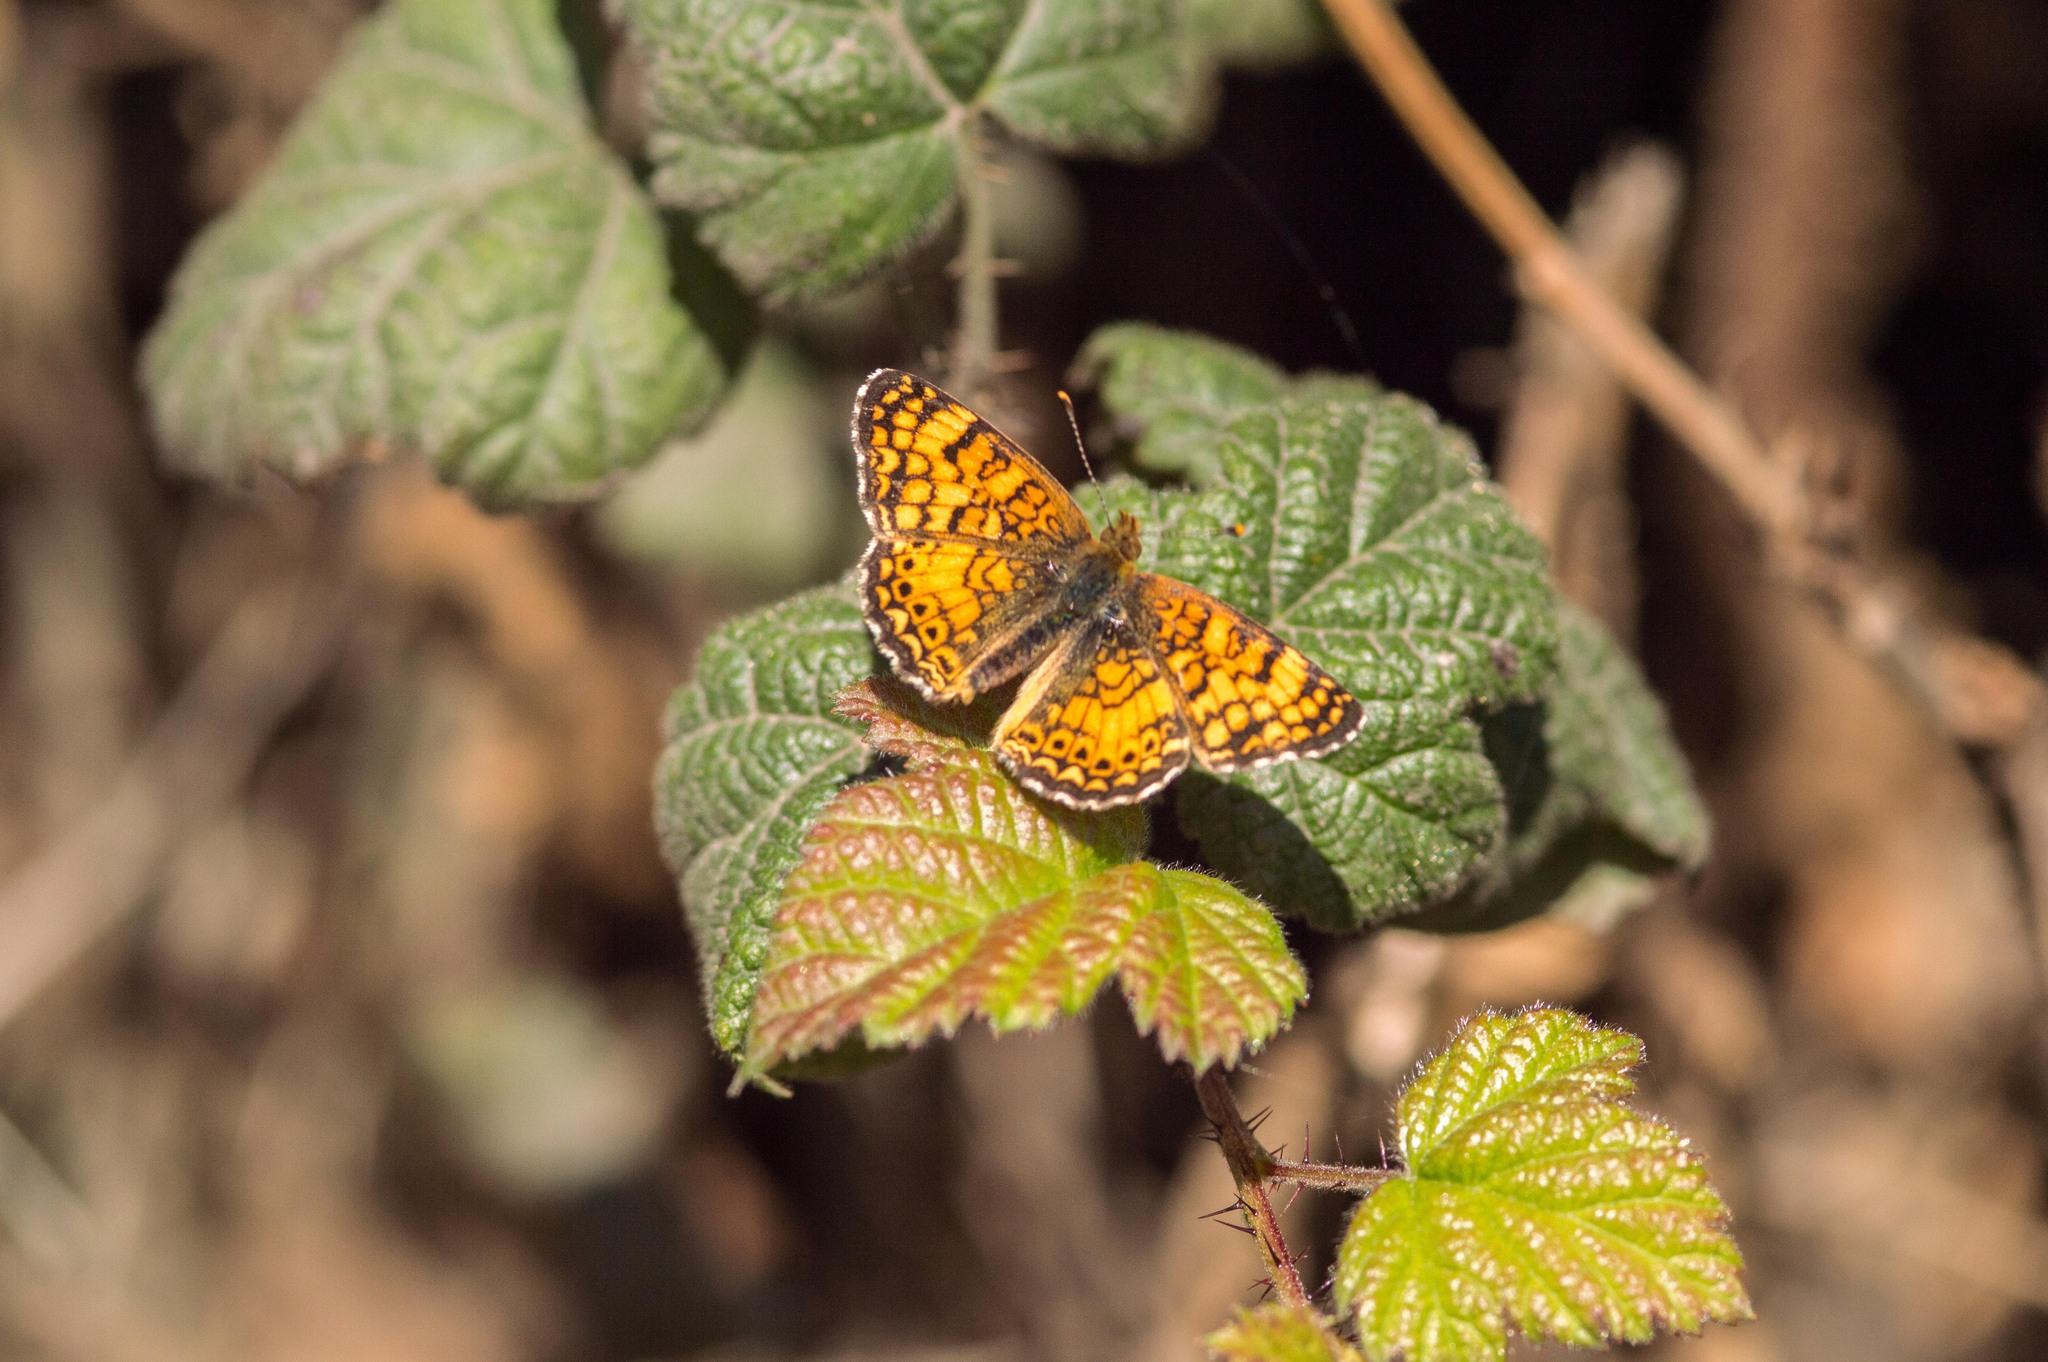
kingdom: Animalia
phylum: Arthropoda
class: Insecta
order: Lepidoptera
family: Nymphalidae
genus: Eresia
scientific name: Eresia aveyrona
